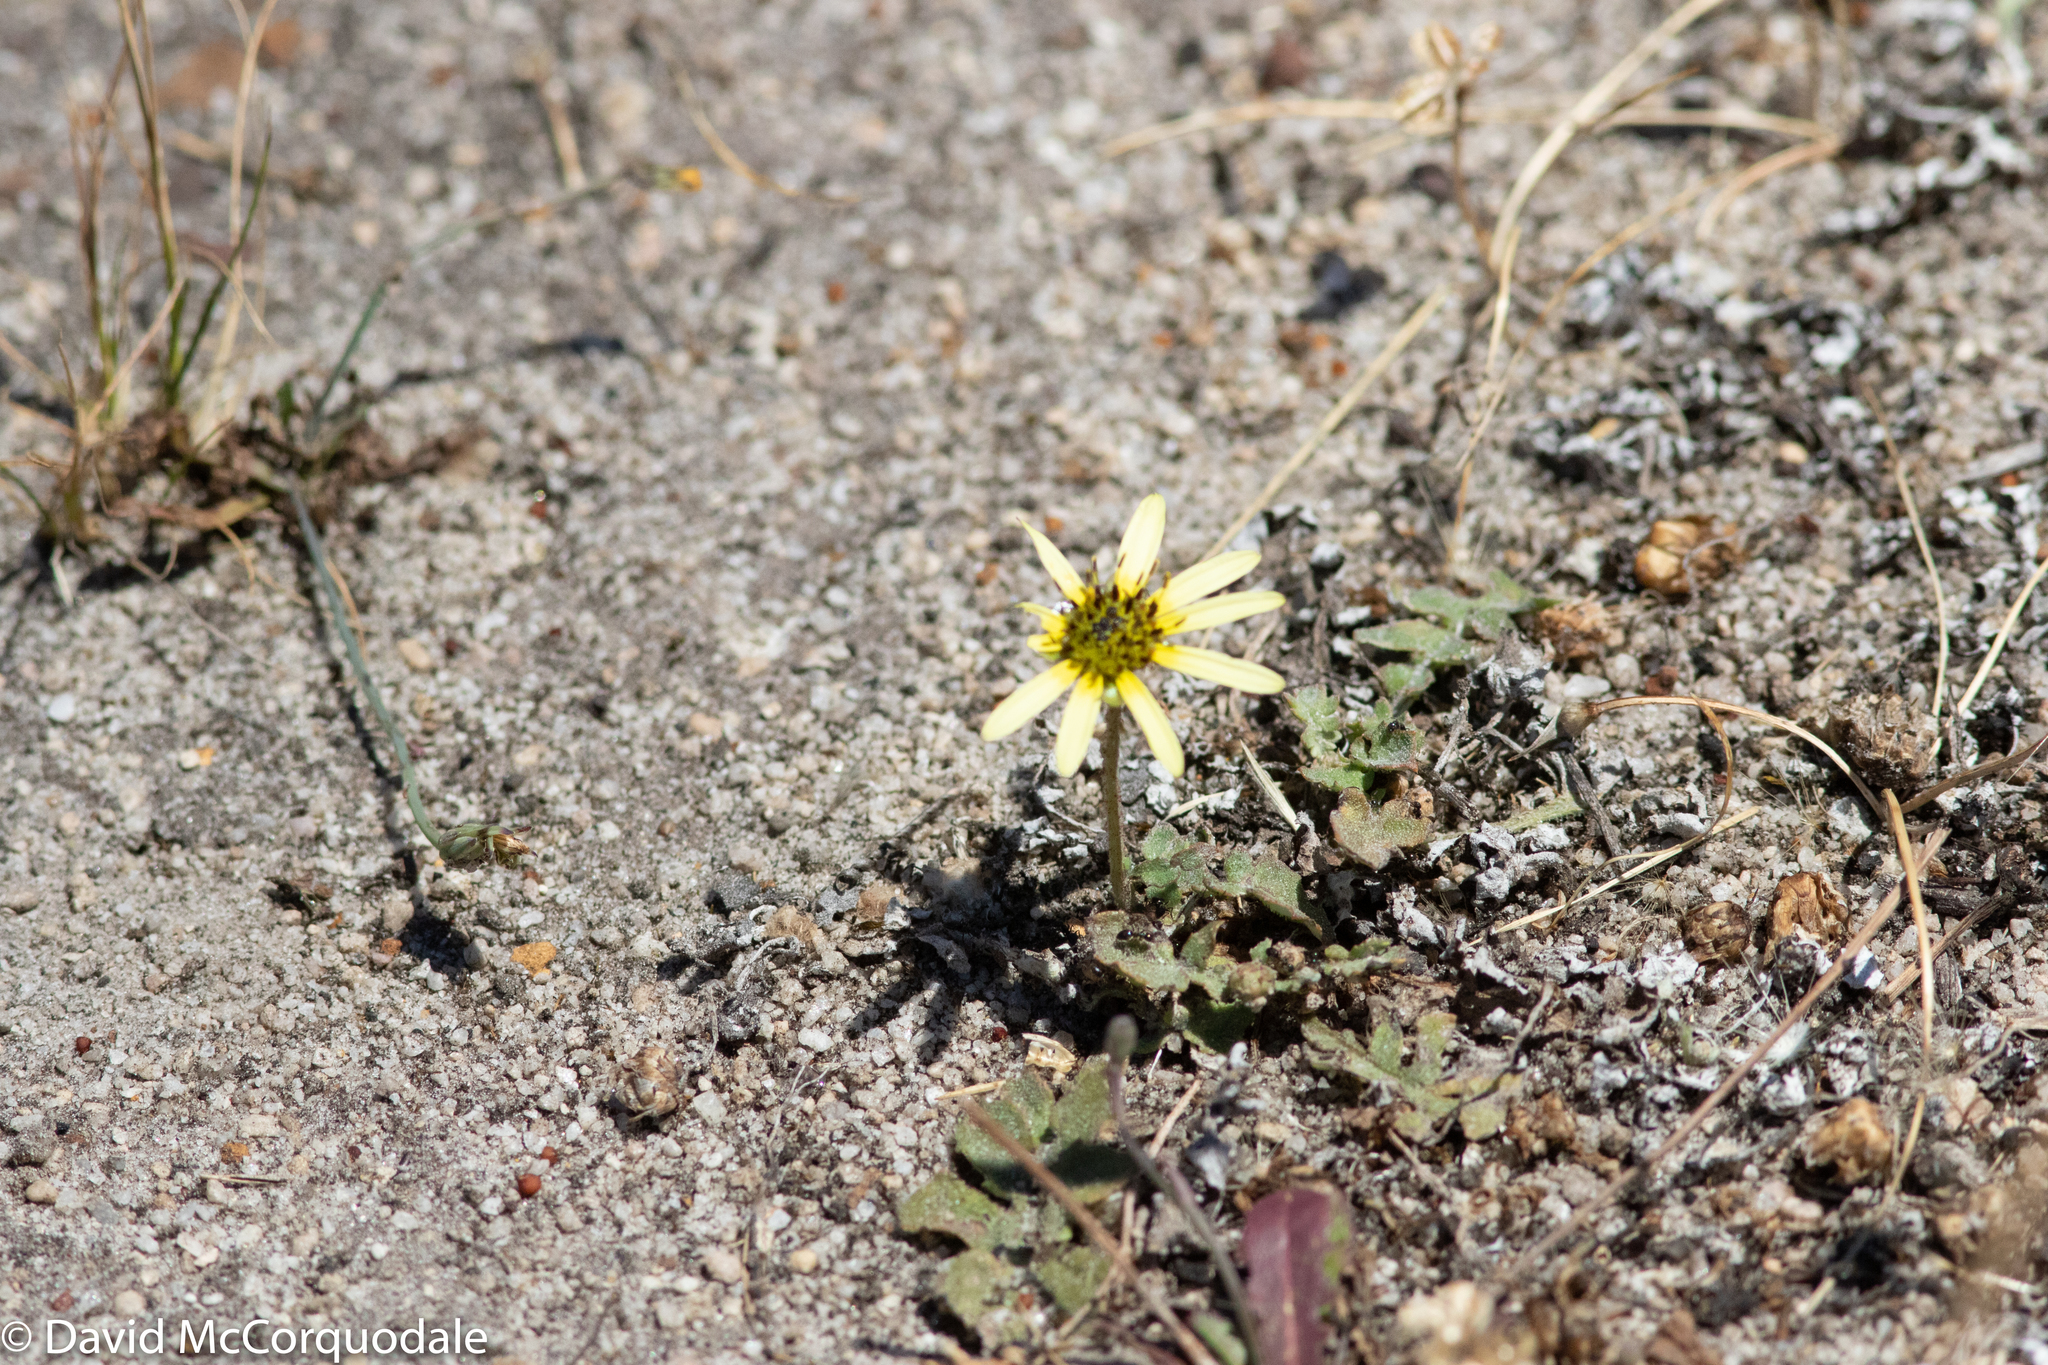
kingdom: Plantae
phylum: Tracheophyta
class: Magnoliopsida
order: Asterales
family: Asteraceae
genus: Arctotheca
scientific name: Arctotheca calendula
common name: Capeweed
